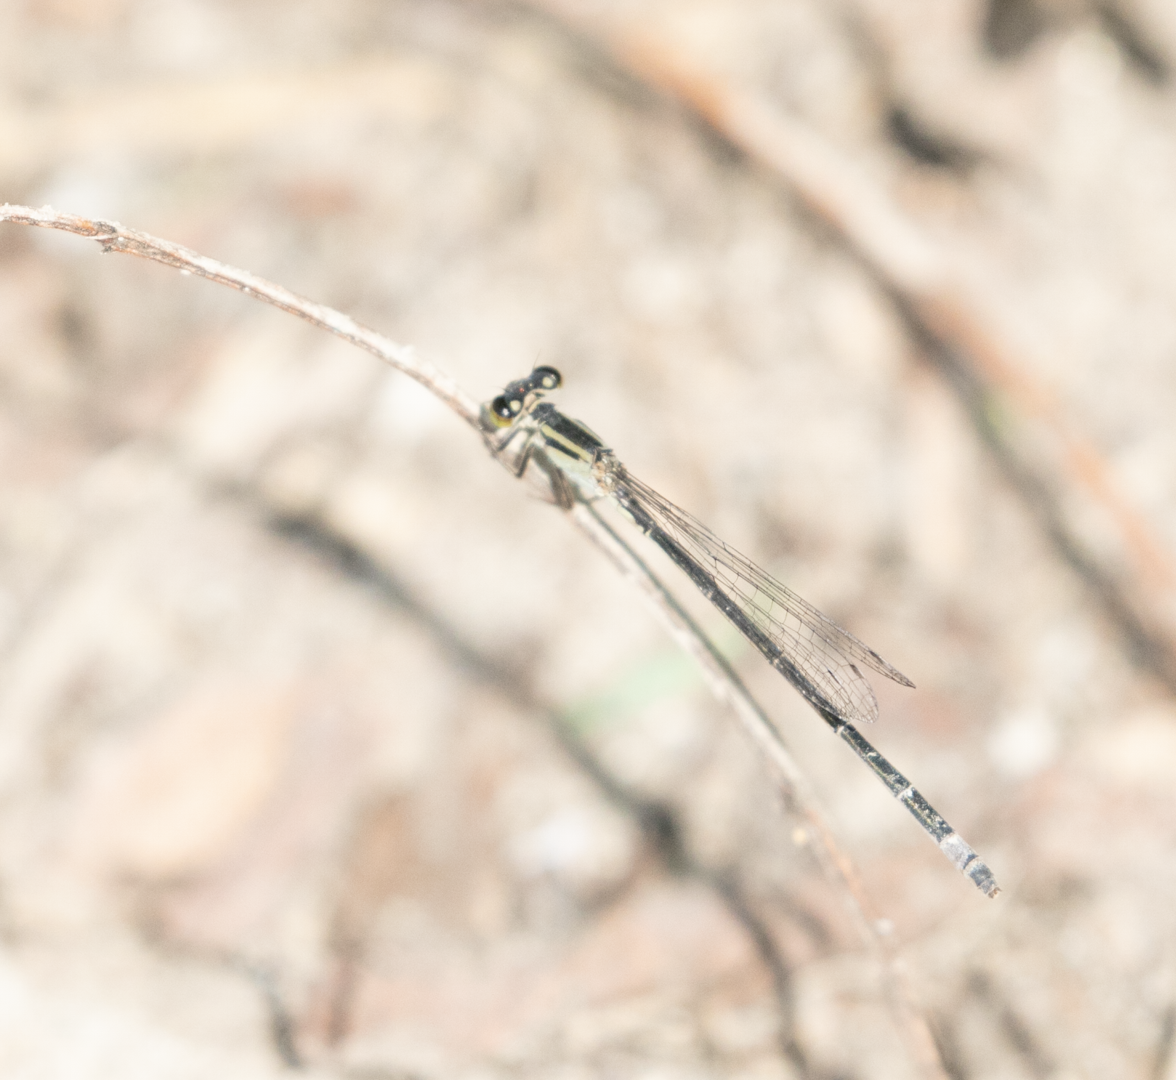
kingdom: Animalia
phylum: Arthropoda
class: Insecta
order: Odonata
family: Coenagrionidae
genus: Ischnura
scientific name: Ischnura elegans
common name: Blue-tailed damselfly
